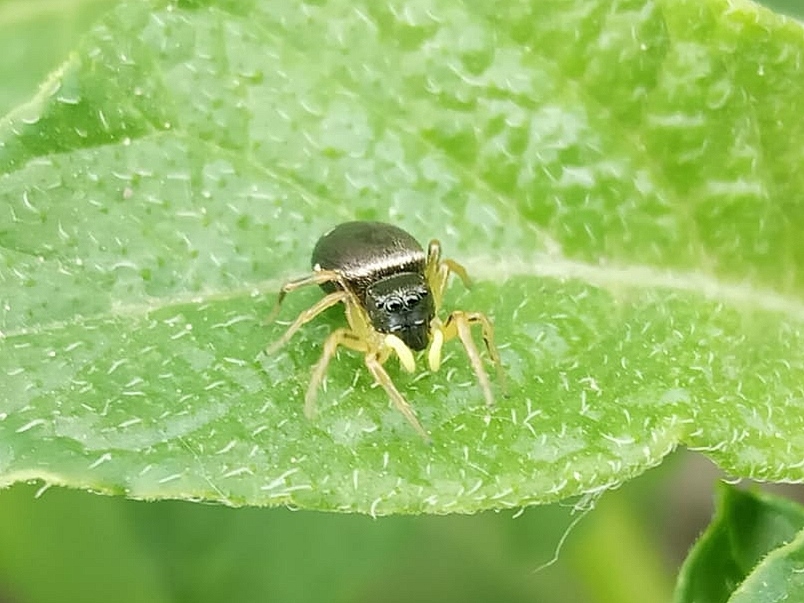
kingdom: Animalia
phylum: Arthropoda
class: Arachnida
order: Araneae
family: Salticidae
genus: Heliophanus
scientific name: Heliophanus
